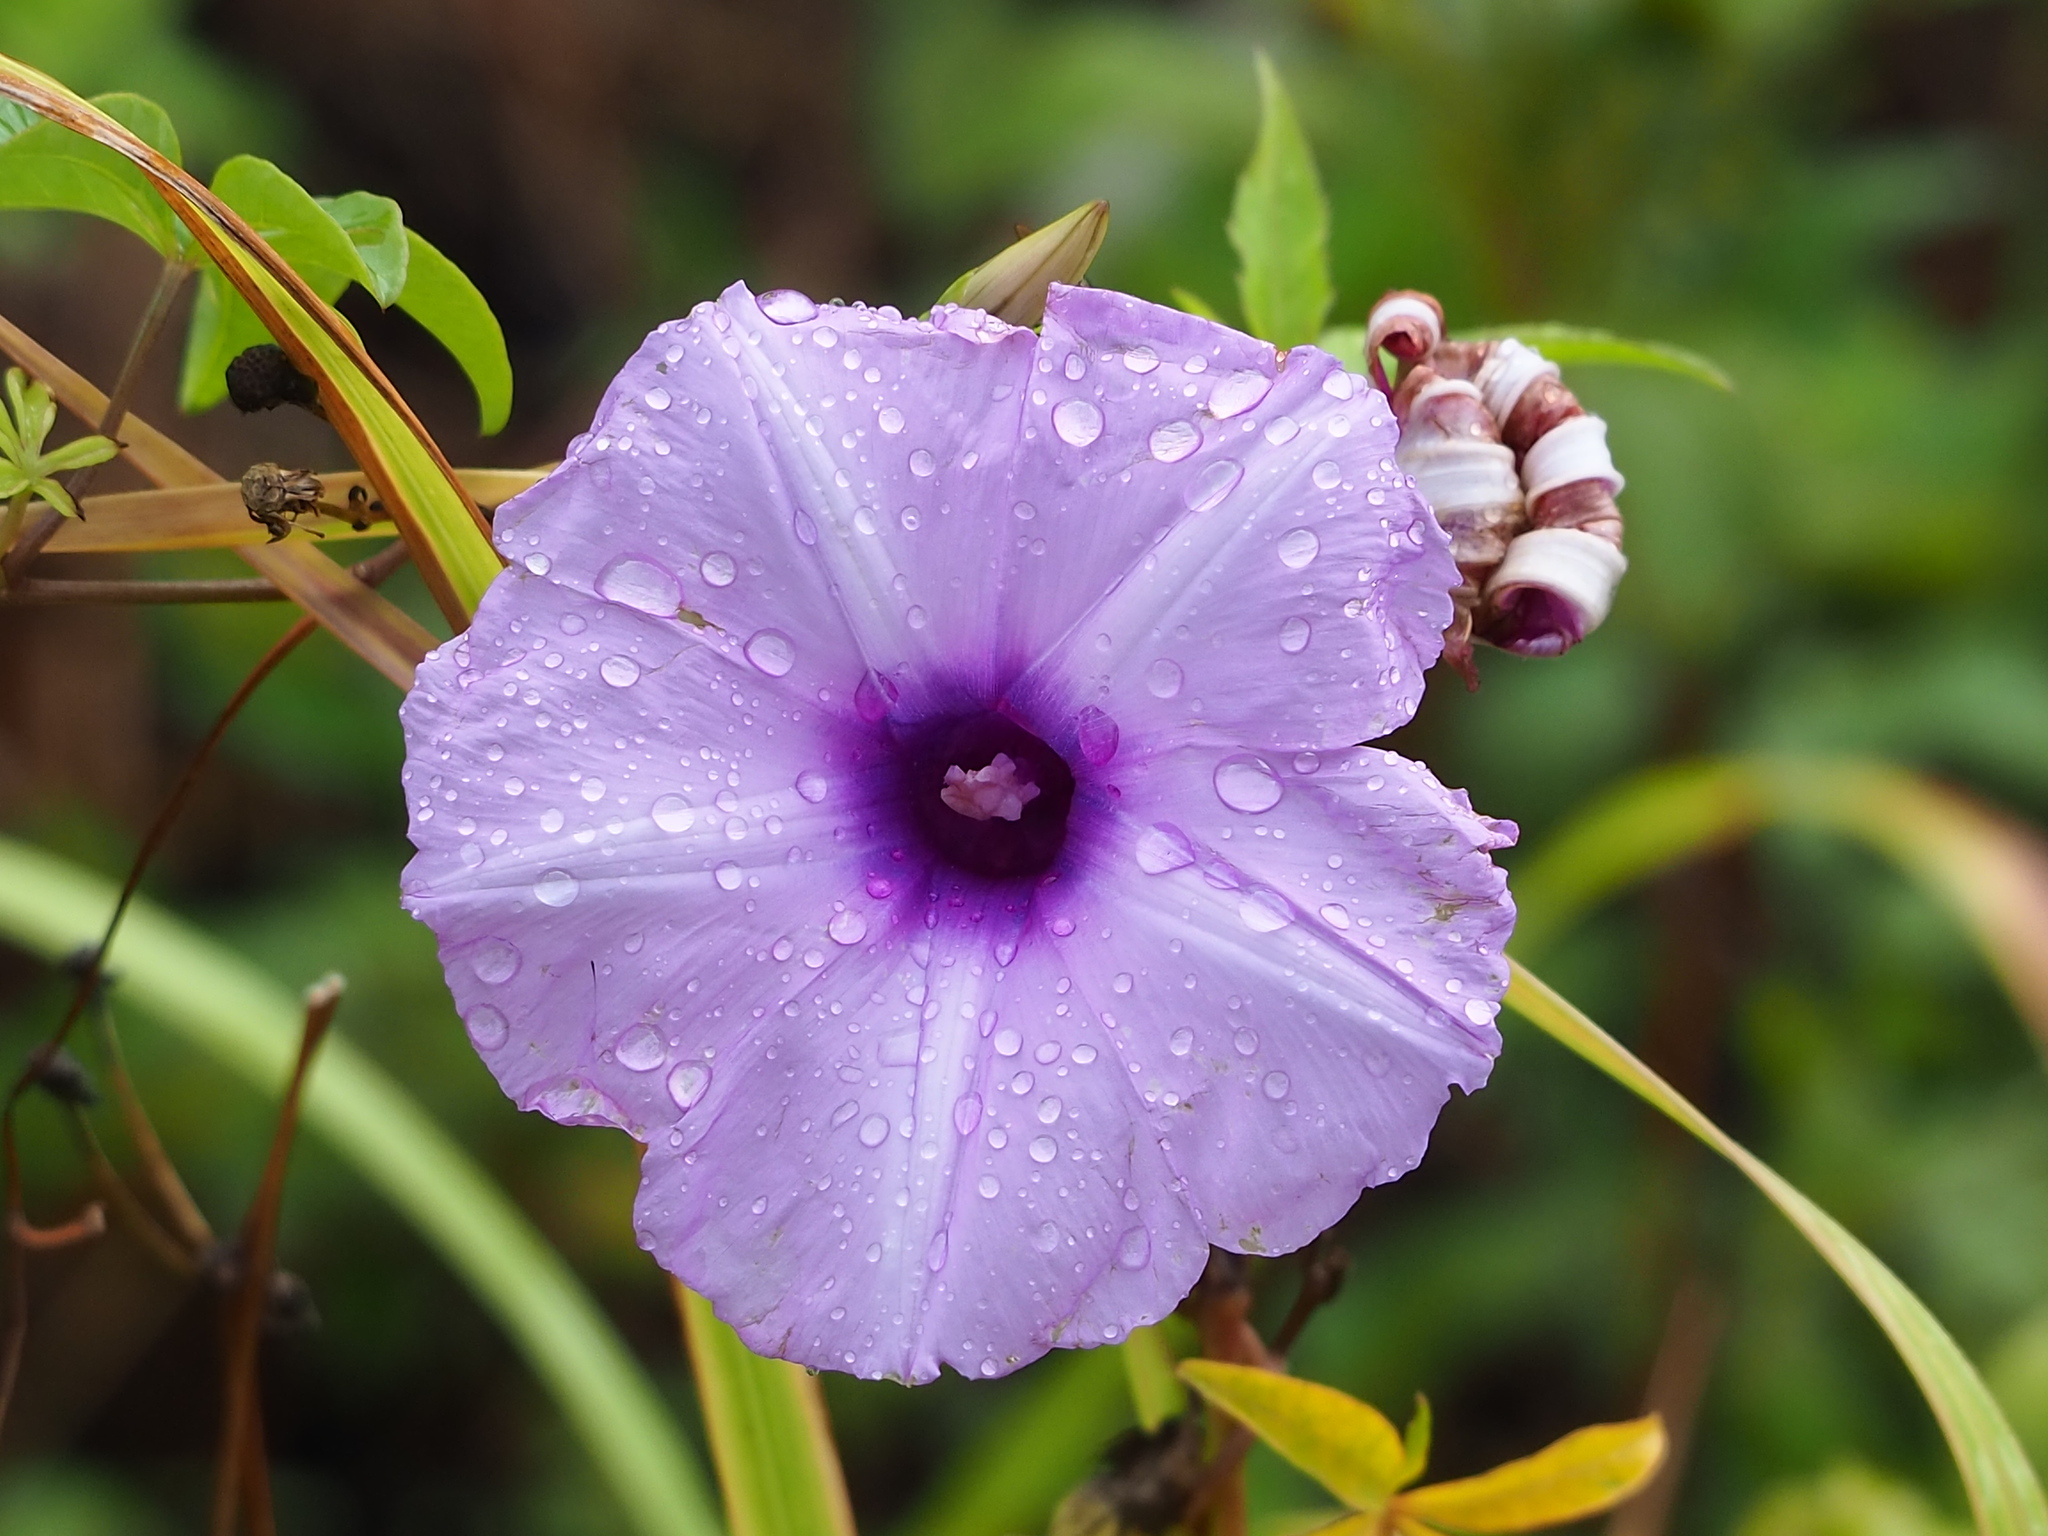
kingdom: Plantae
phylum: Tracheophyta
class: Magnoliopsida
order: Solanales
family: Convolvulaceae
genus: Ipomoea
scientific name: Ipomoea cairica
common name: Mile a minute vine
